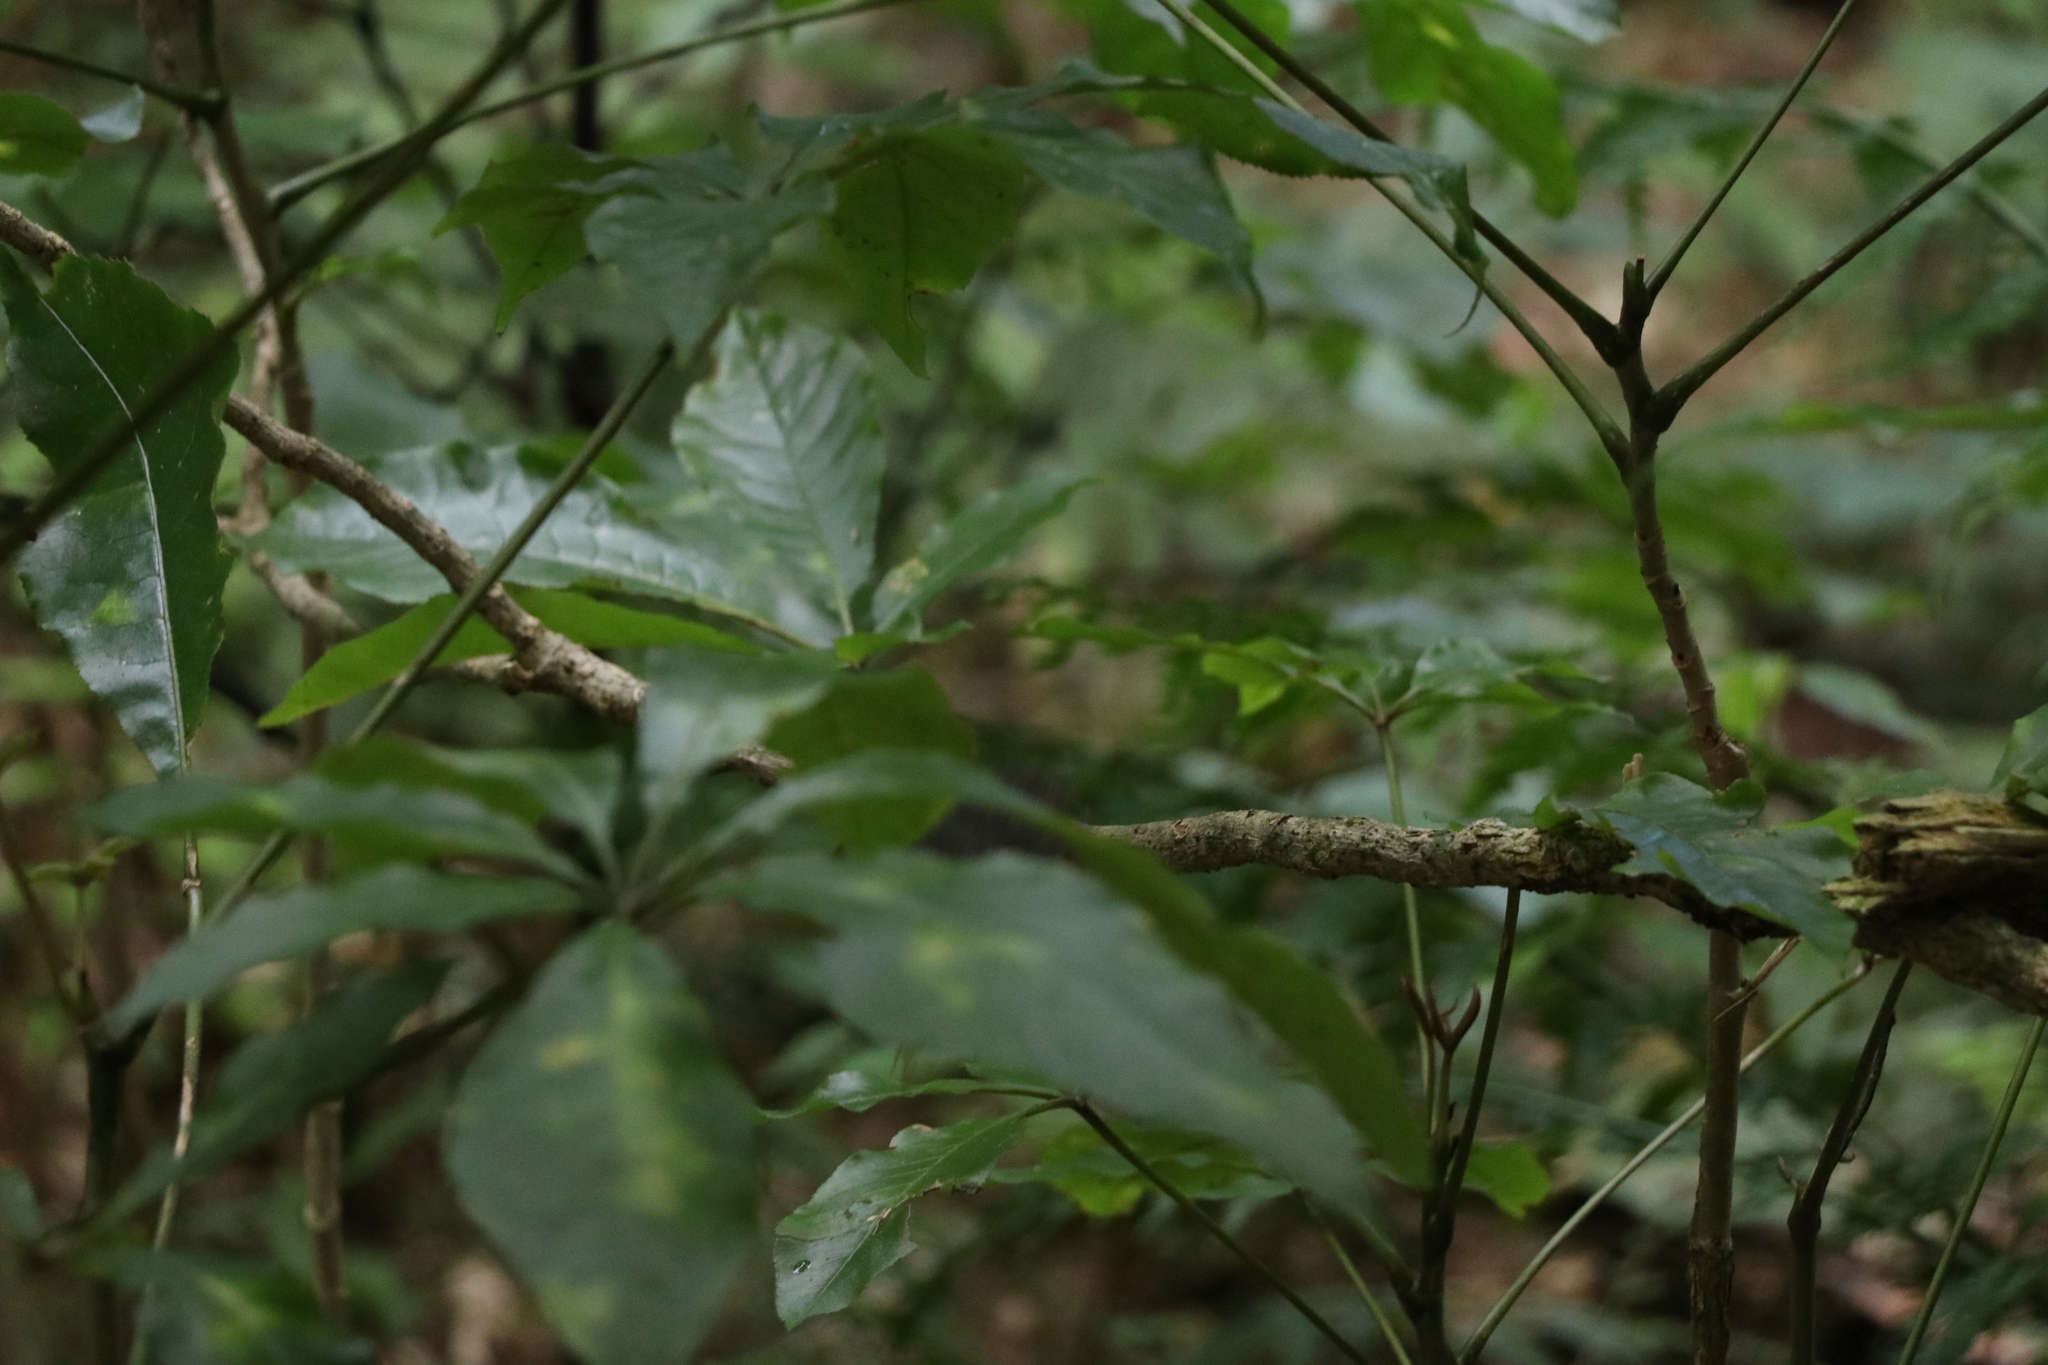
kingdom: Plantae
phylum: Tracheophyta
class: Magnoliopsida
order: Apiales
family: Araliaceae
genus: Schefflera
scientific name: Schefflera digitata
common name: Pate
